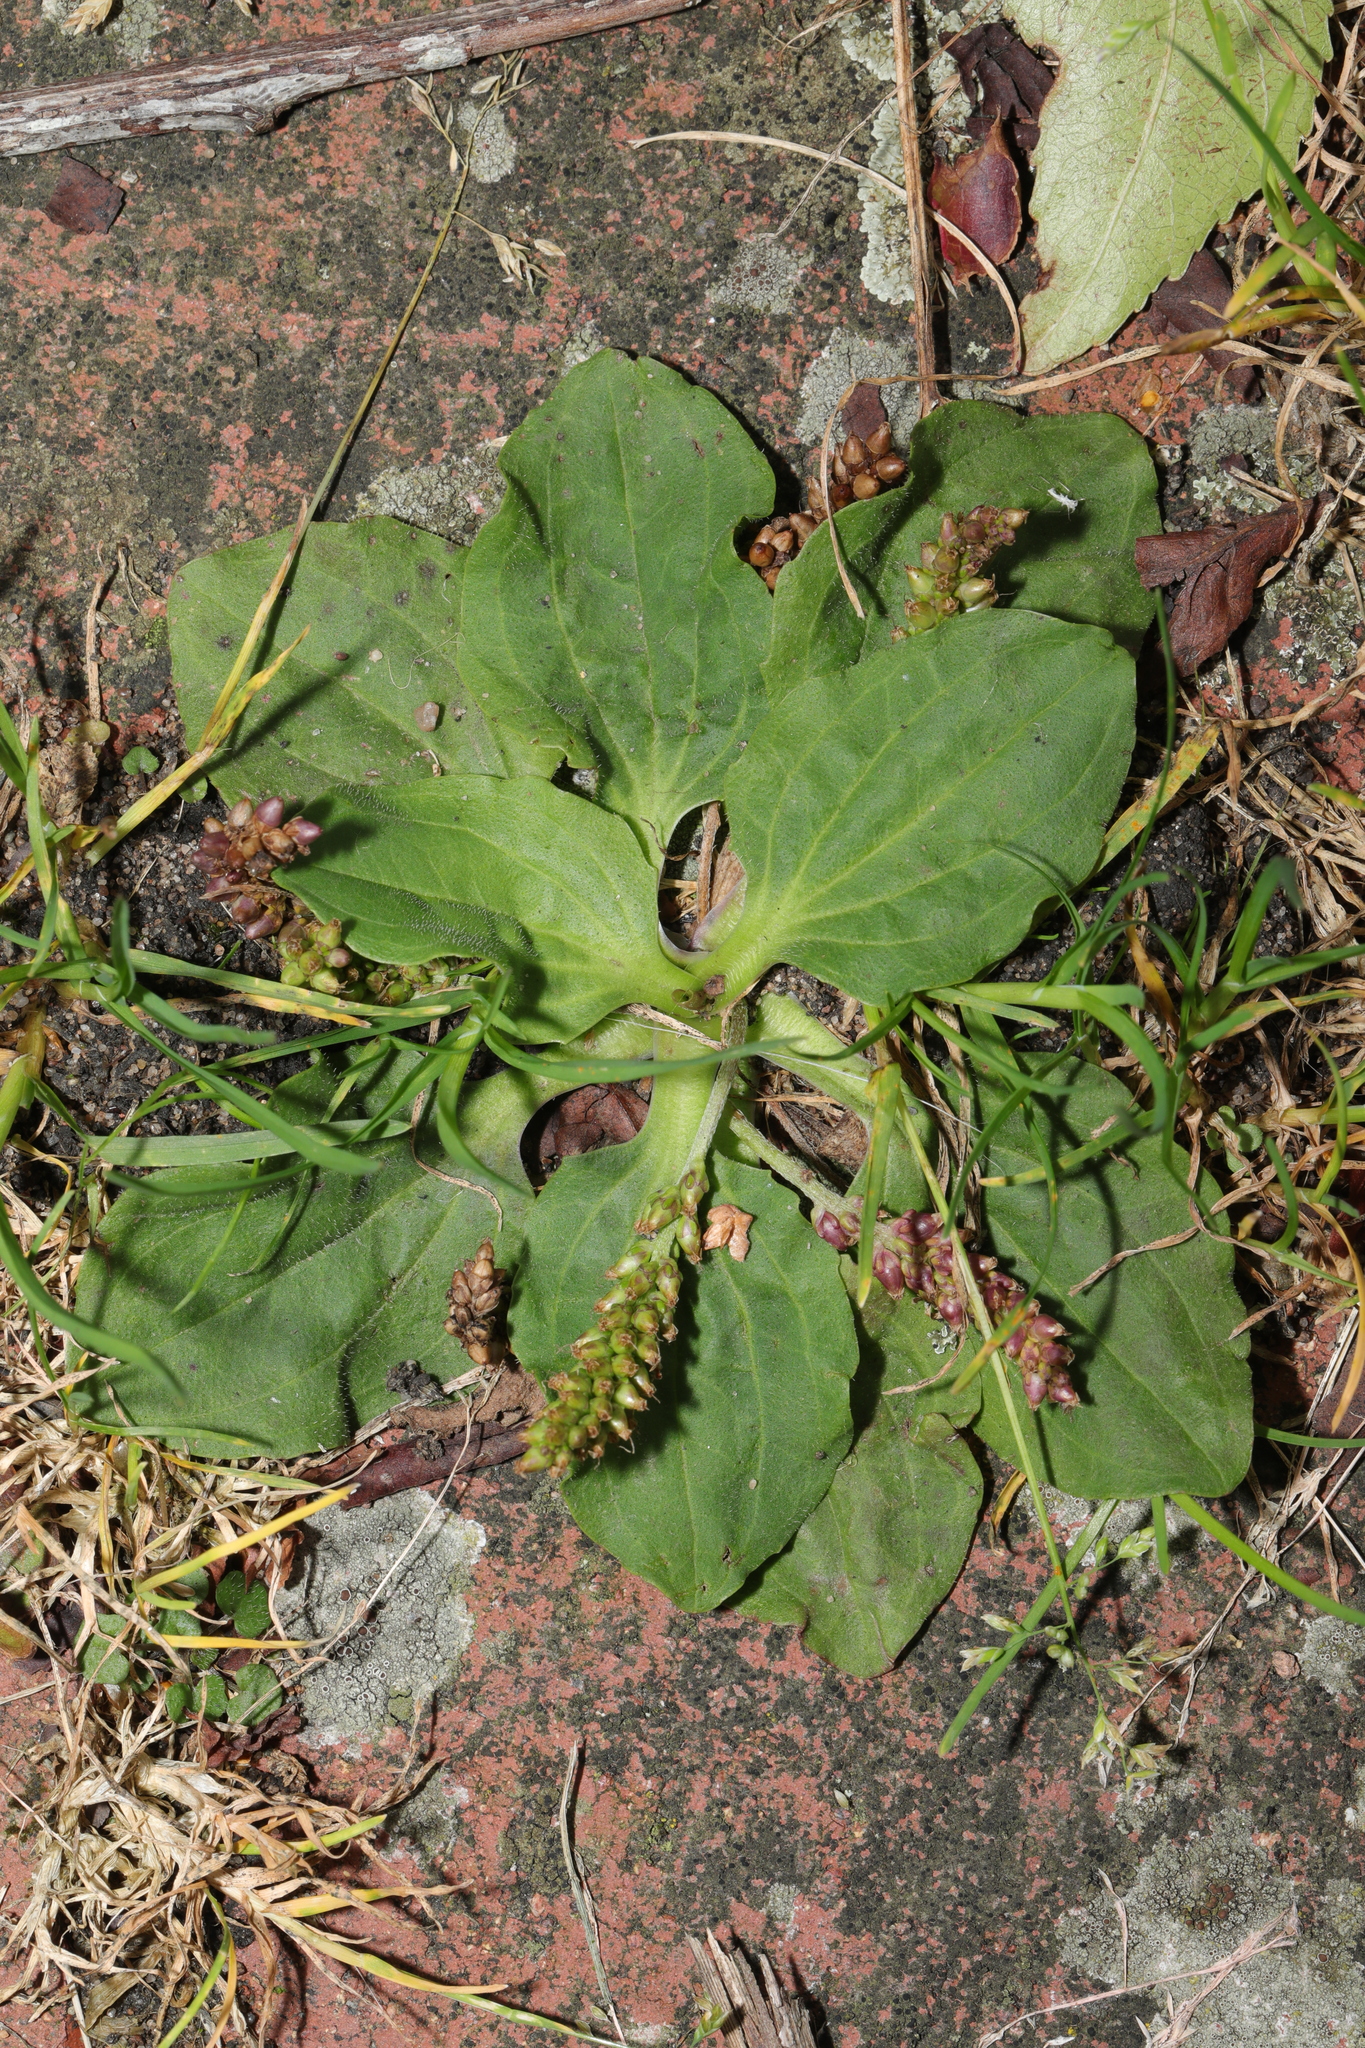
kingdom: Plantae
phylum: Tracheophyta
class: Magnoliopsida
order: Lamiales
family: Plantaginaceae
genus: Plantago
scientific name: Plantago major
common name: Common plantain
